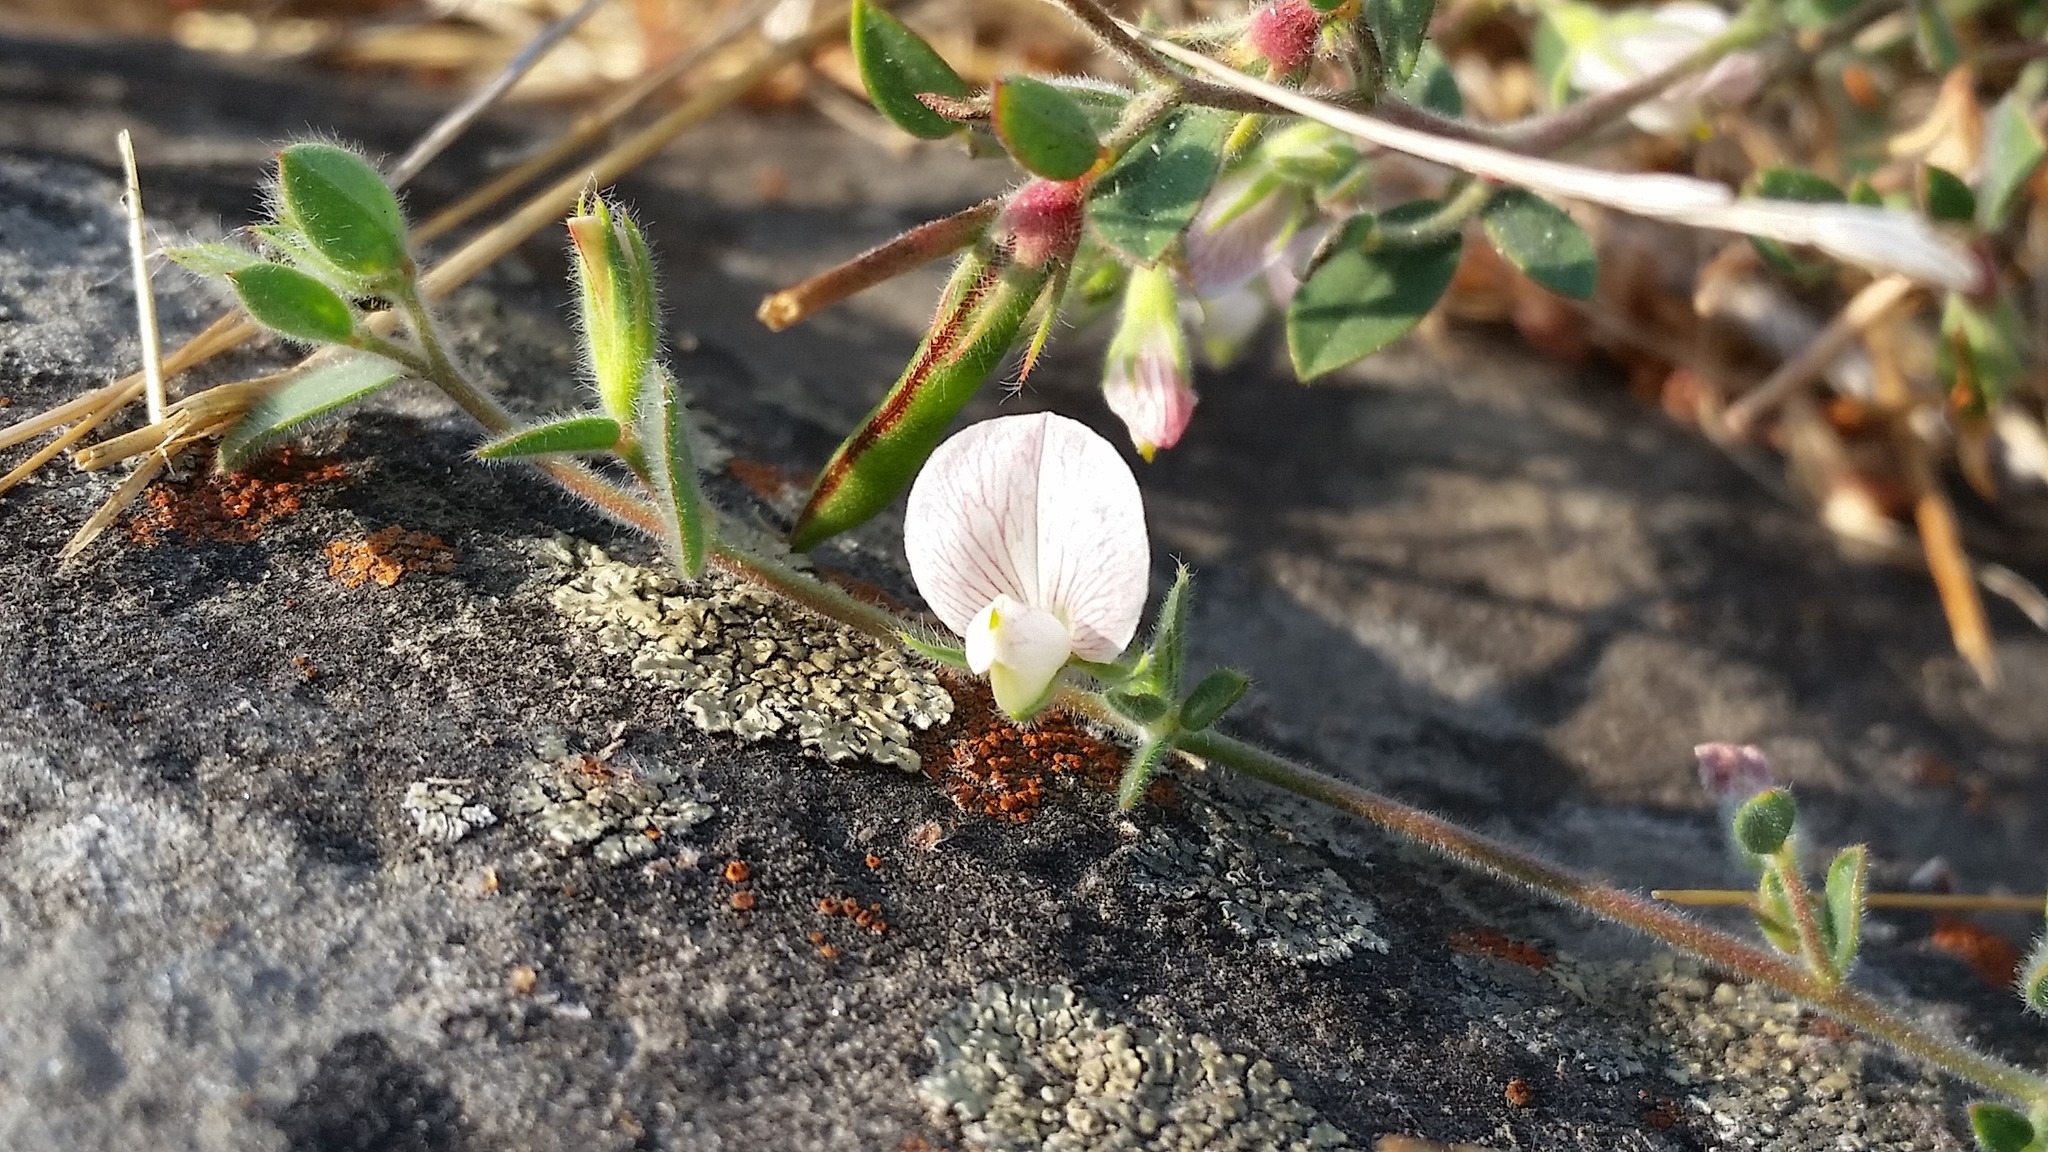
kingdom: Plantae
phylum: Tracheophyta
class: Magnoliopsida
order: Fabales
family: Fabaceae
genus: Acmispon
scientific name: Acmispon americanus
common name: American bird's-foot trefoil
